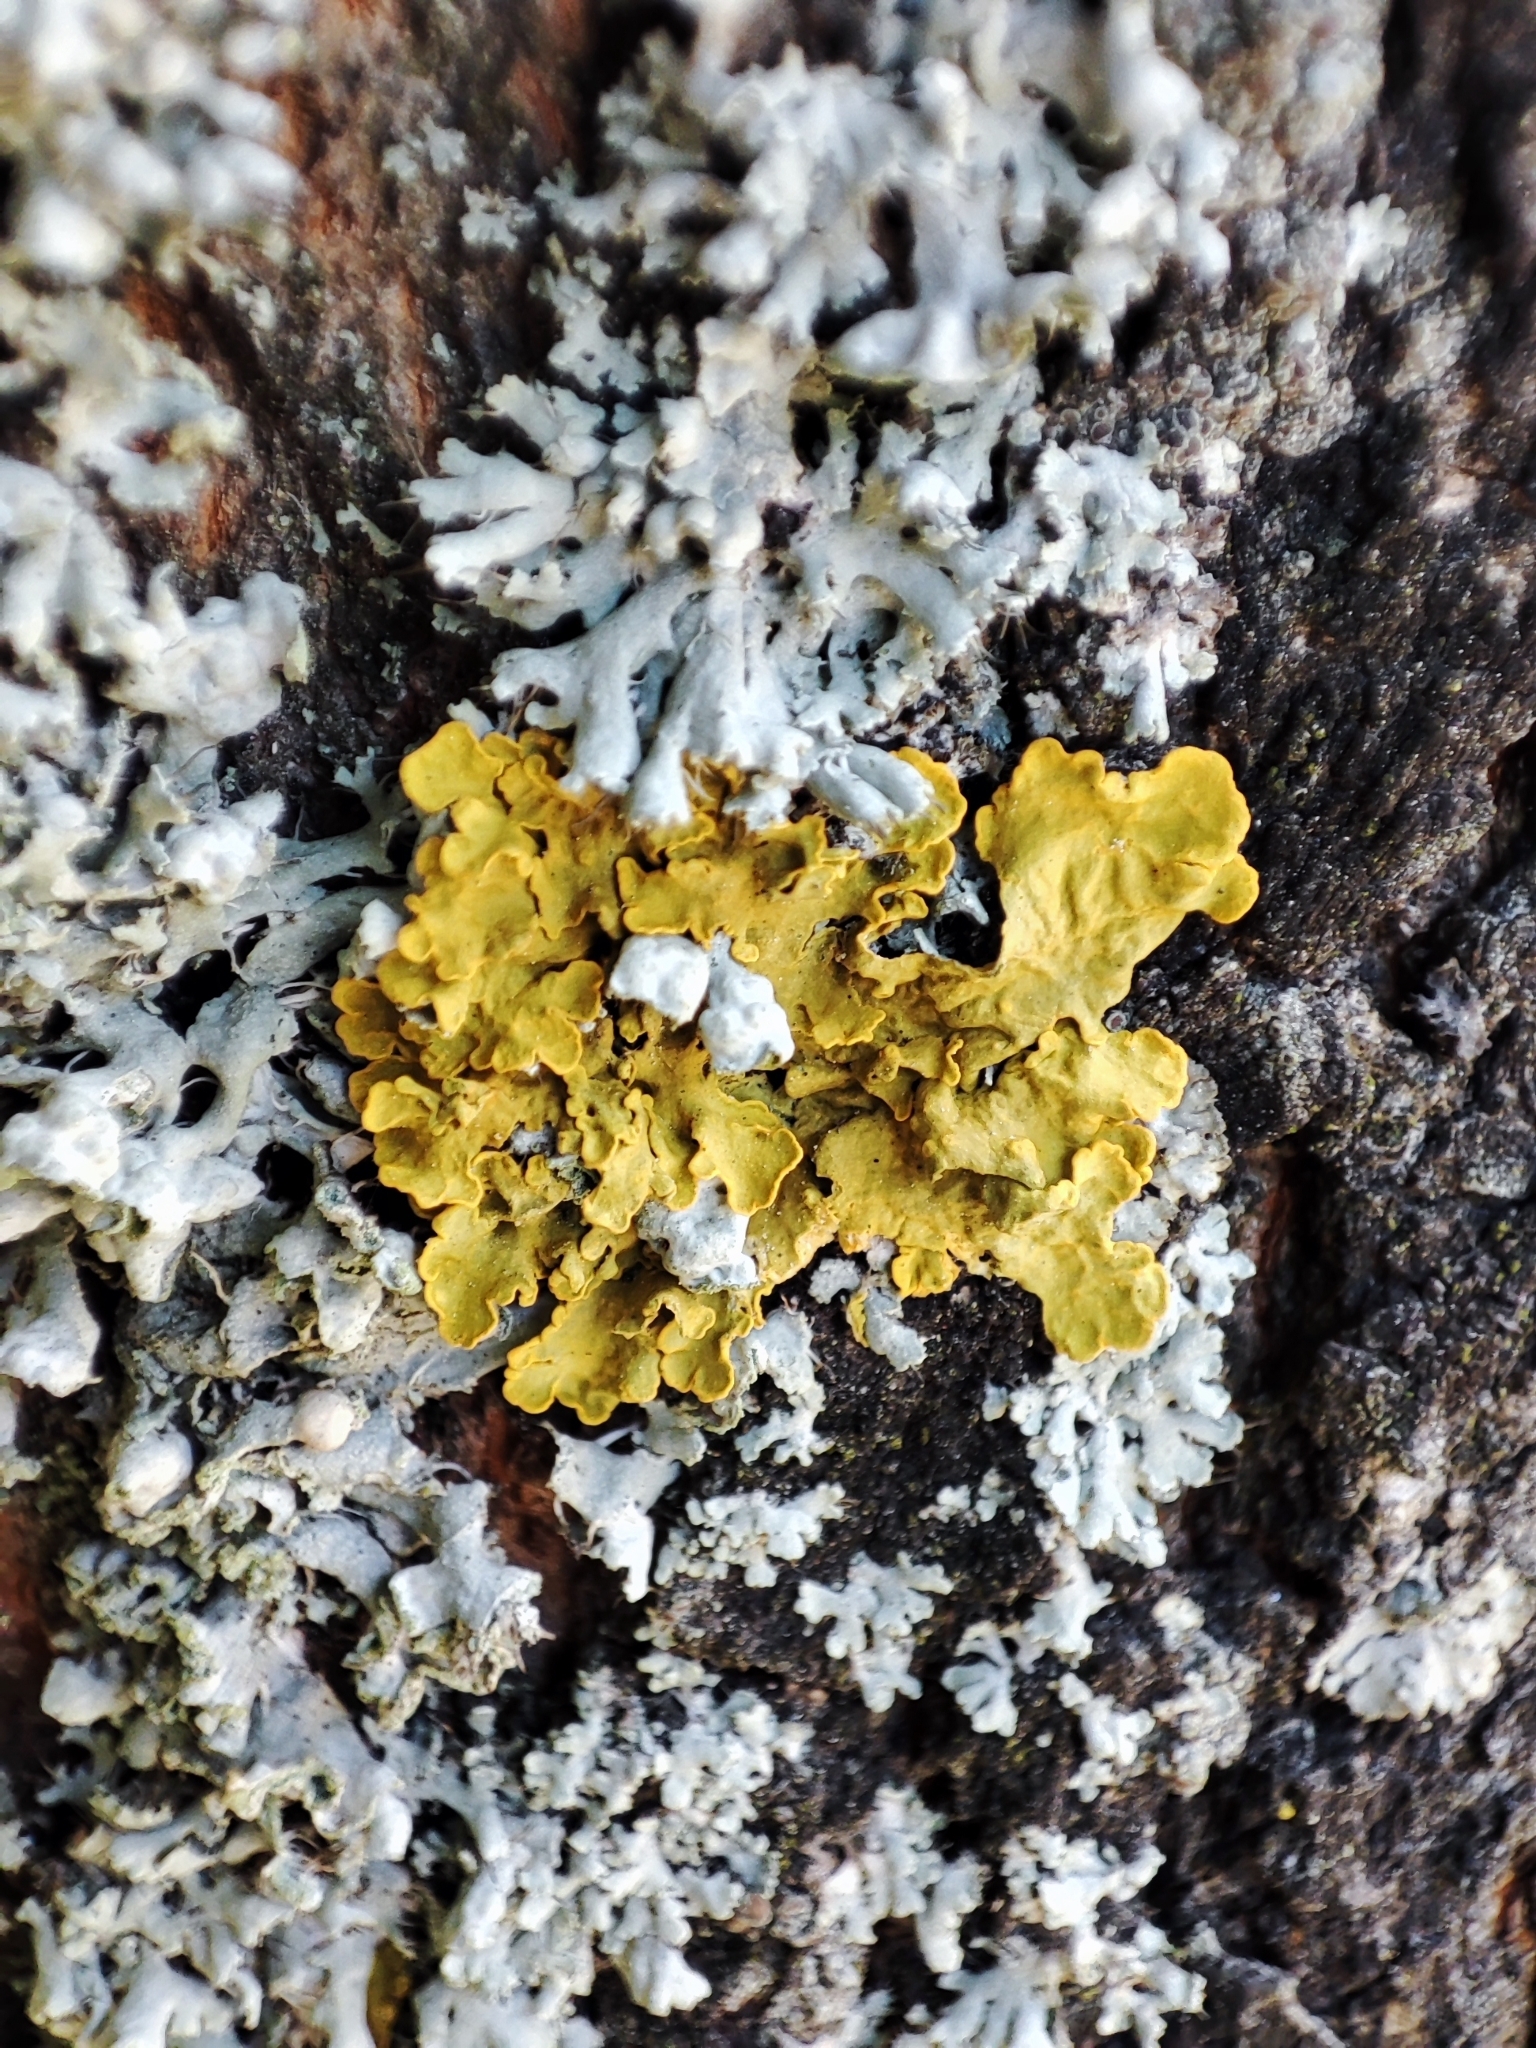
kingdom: Fungi
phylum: Ascomycota
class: Lecanoromycetes
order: Teloschistales
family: Teloschistaceae
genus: Xanthoria
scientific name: Xanthoria parietina
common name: Common orange lichen
